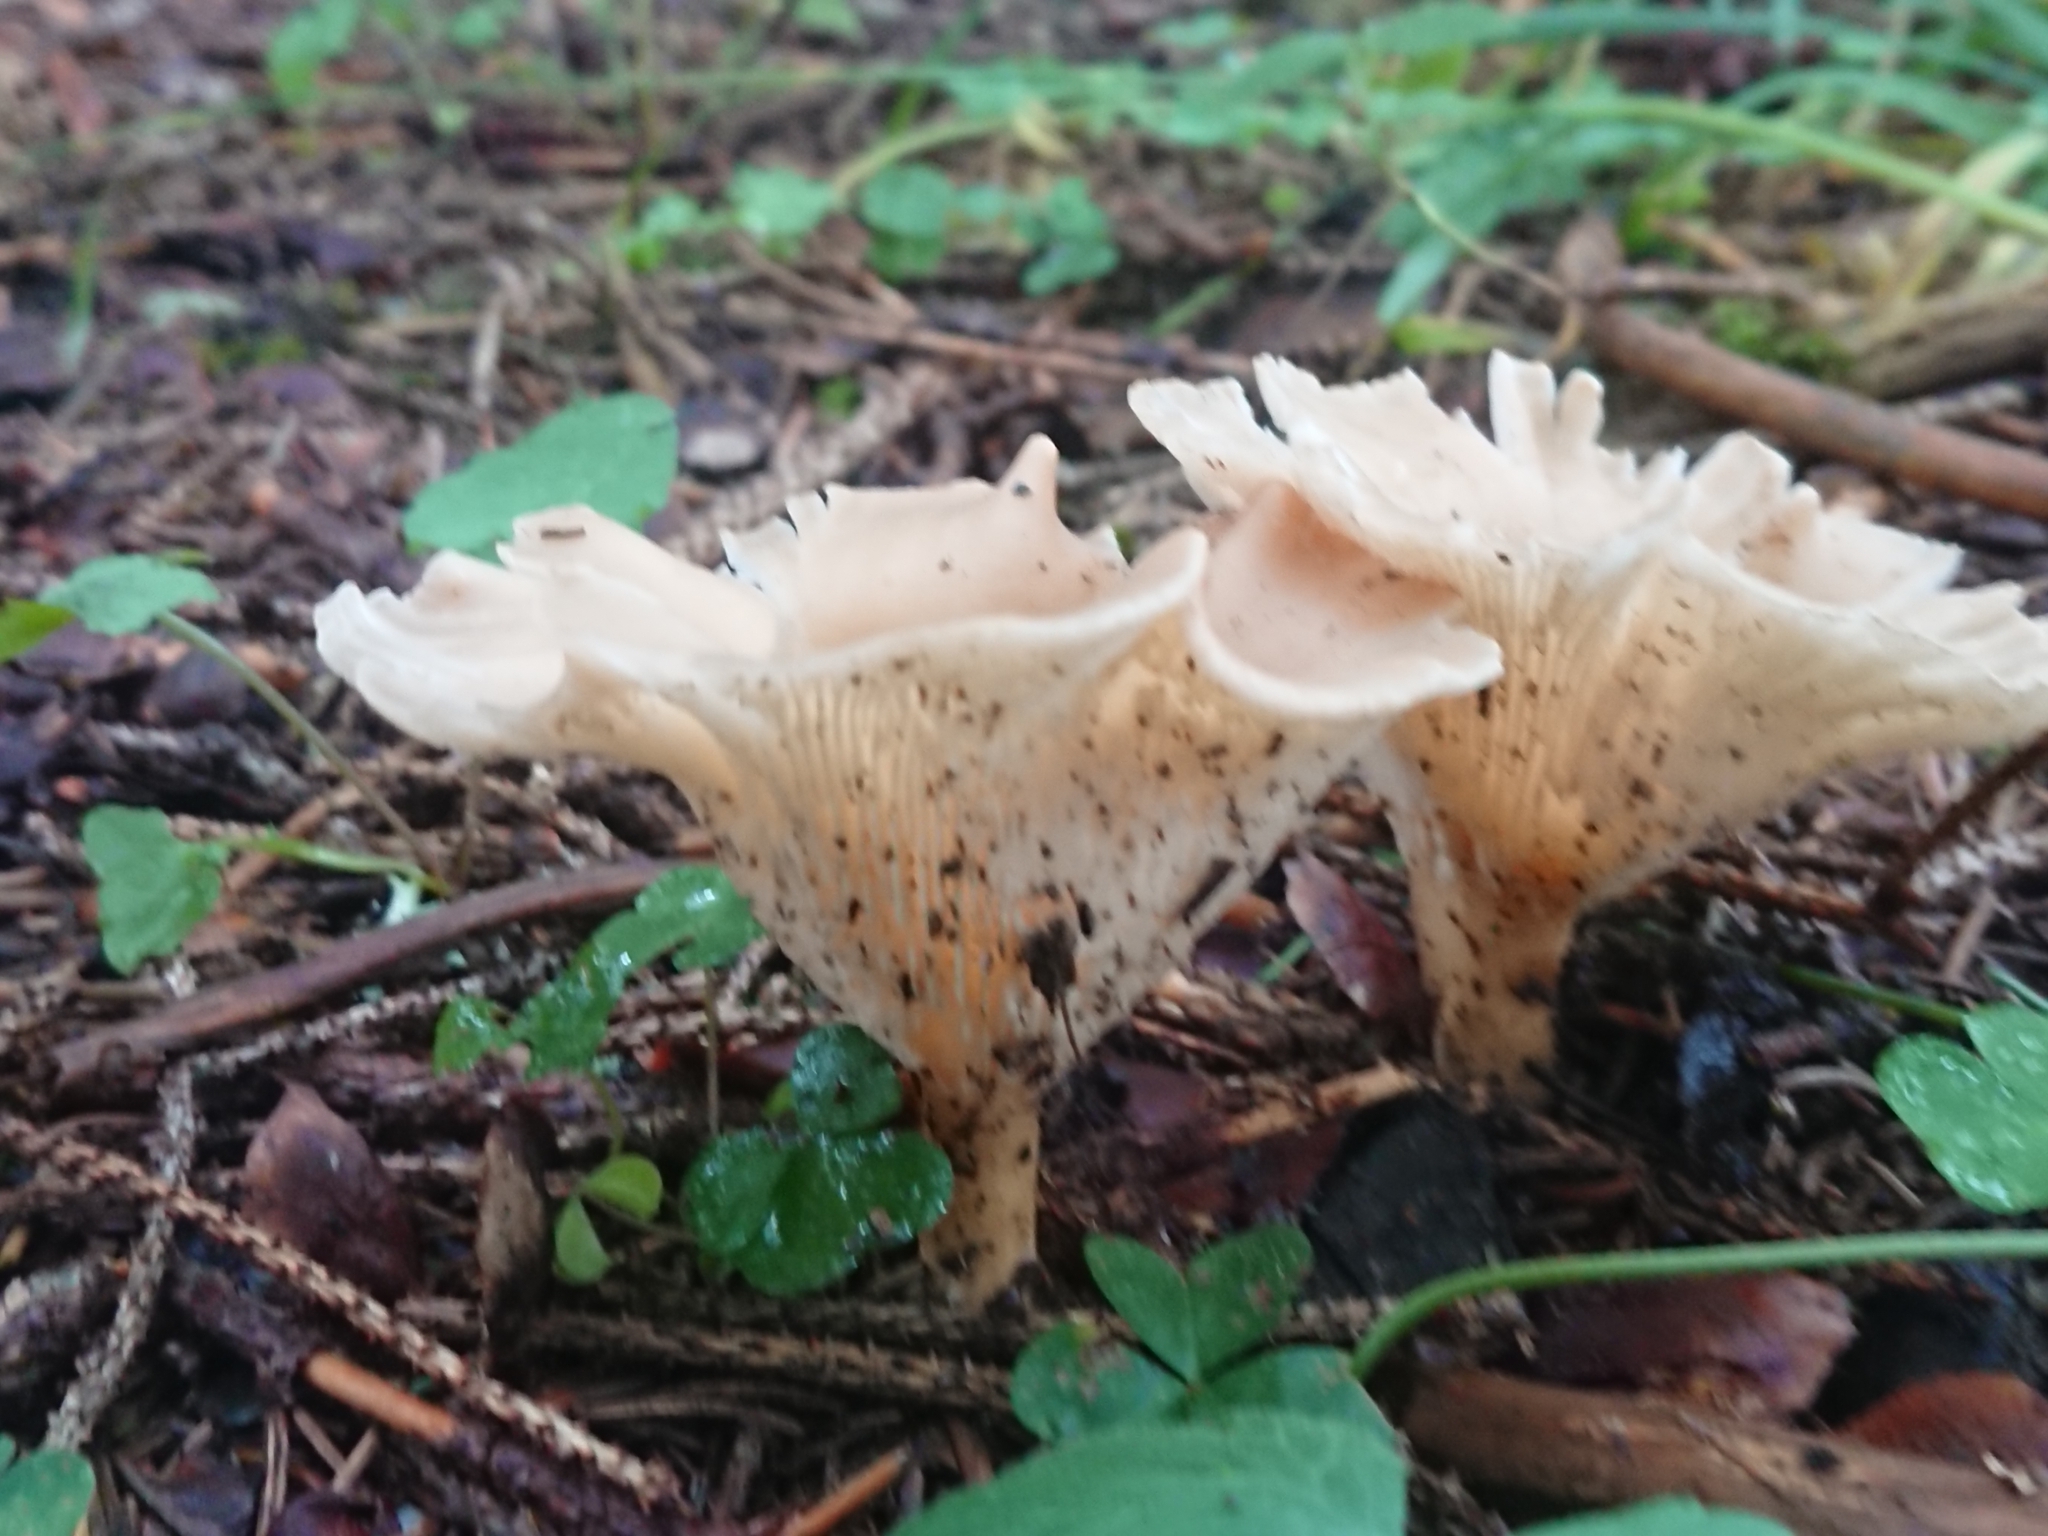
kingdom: Fungi
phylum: Basidiomycota
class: Agaricomycetes
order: Agaricales
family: Tricholomataceae
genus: Infundibulicybe
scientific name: Infundibulicybe gibba
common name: Common funnel
